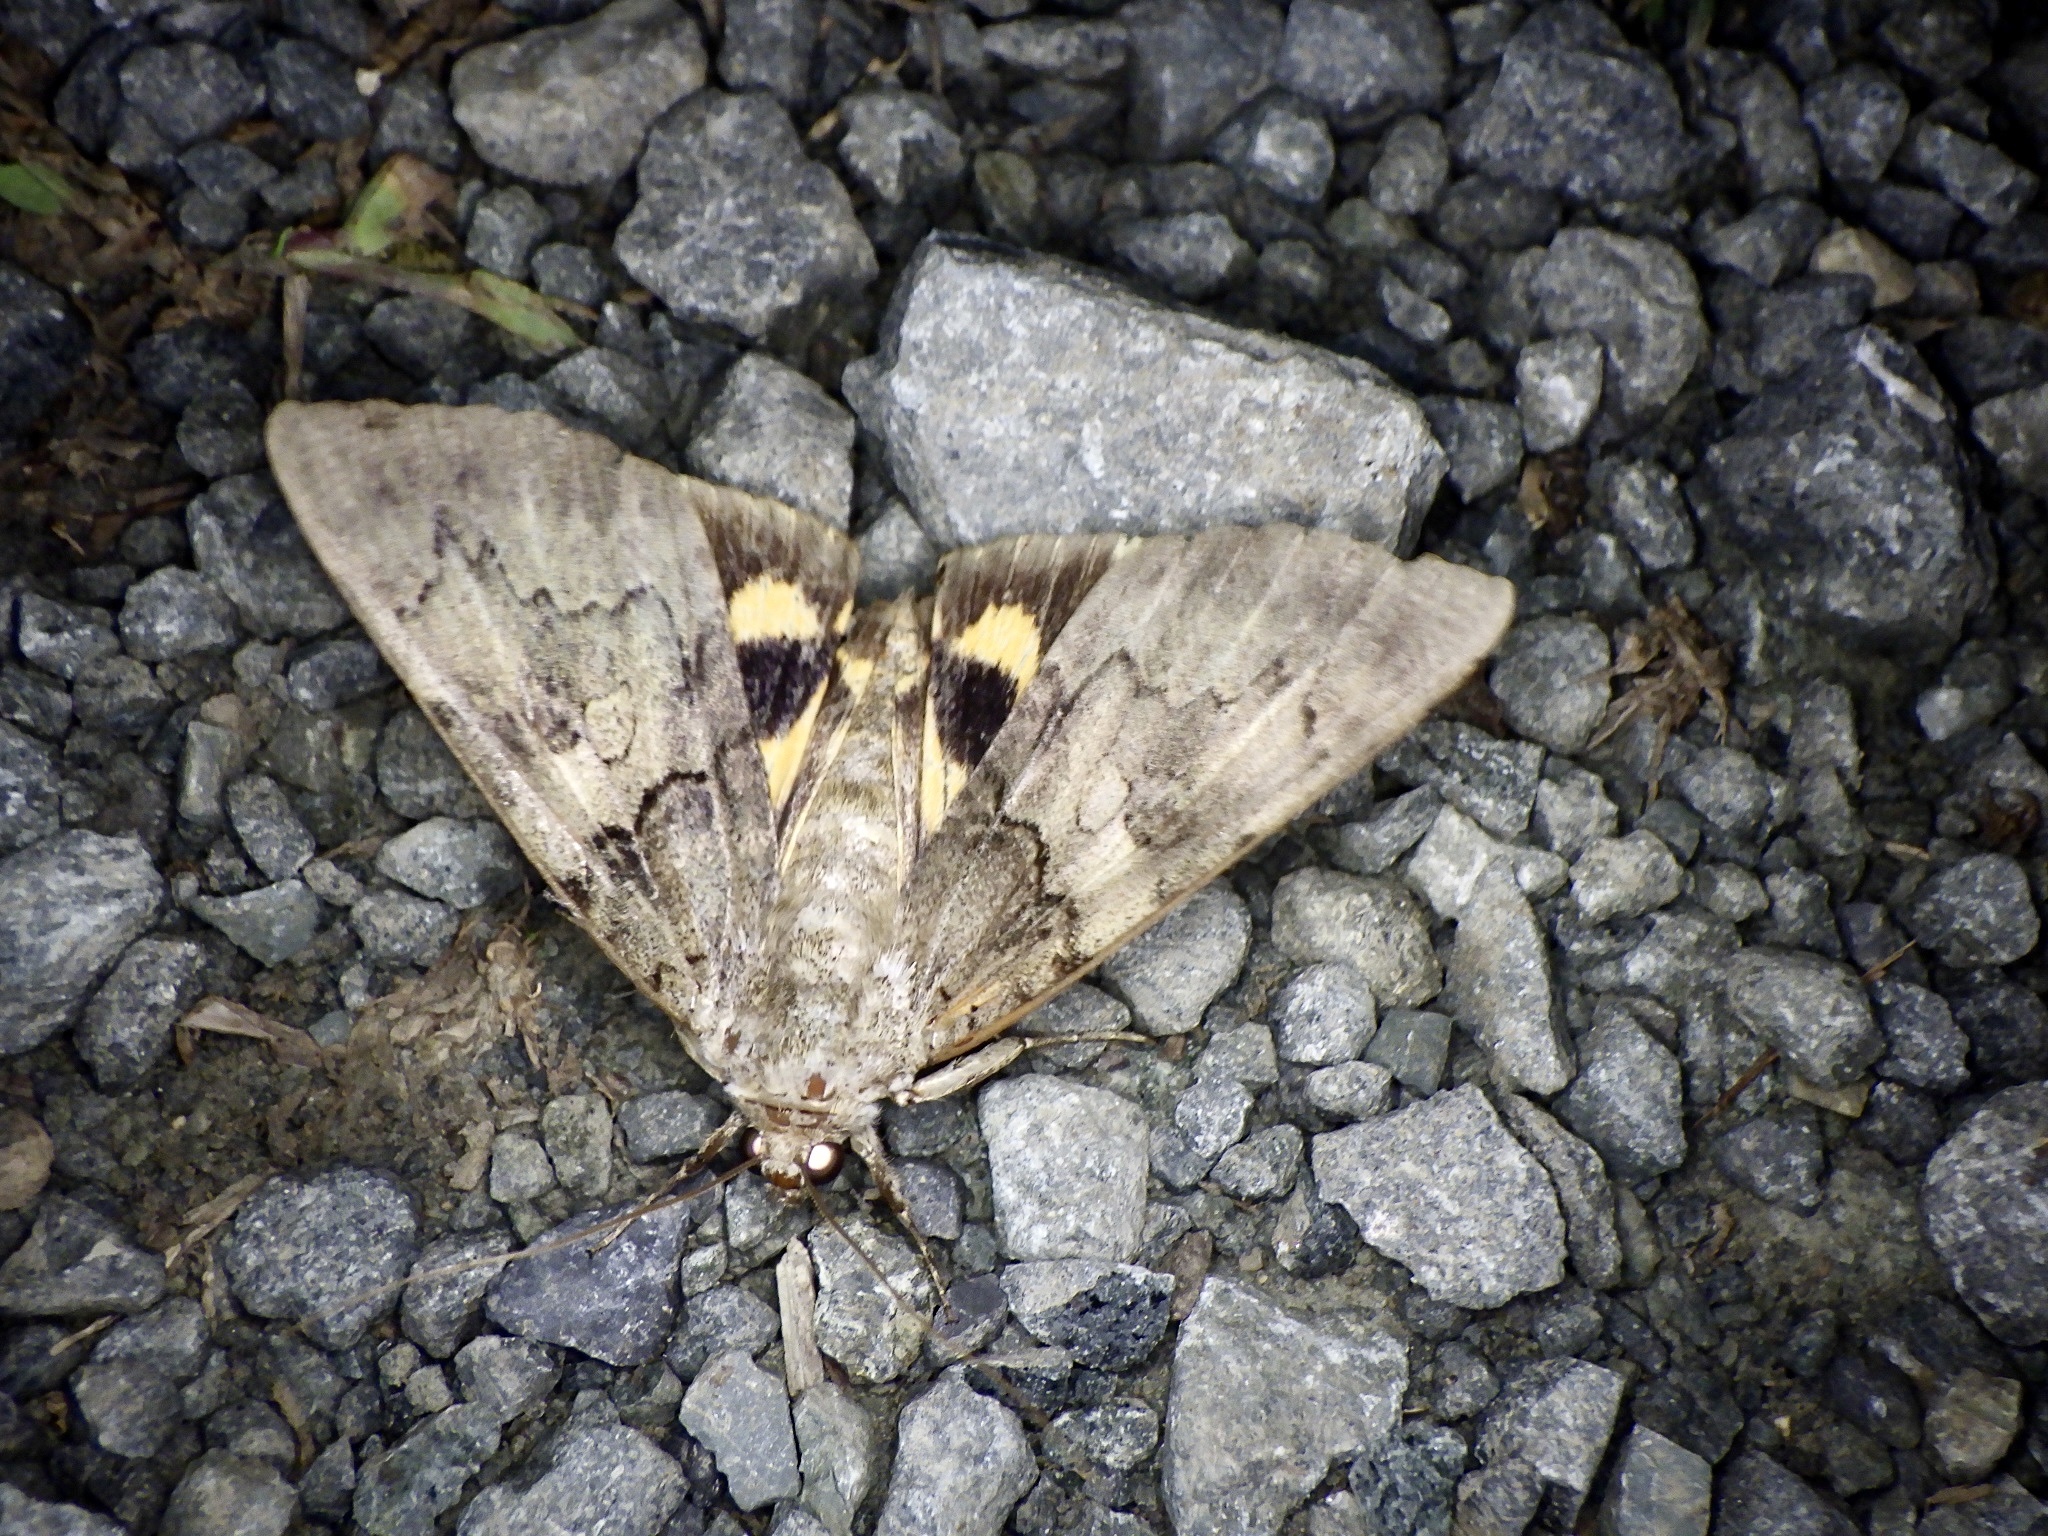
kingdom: Animalia
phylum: Arthropoda
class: Insecta
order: Lepidoptera
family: Erebidae
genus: Catocala
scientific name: Catocala patala
